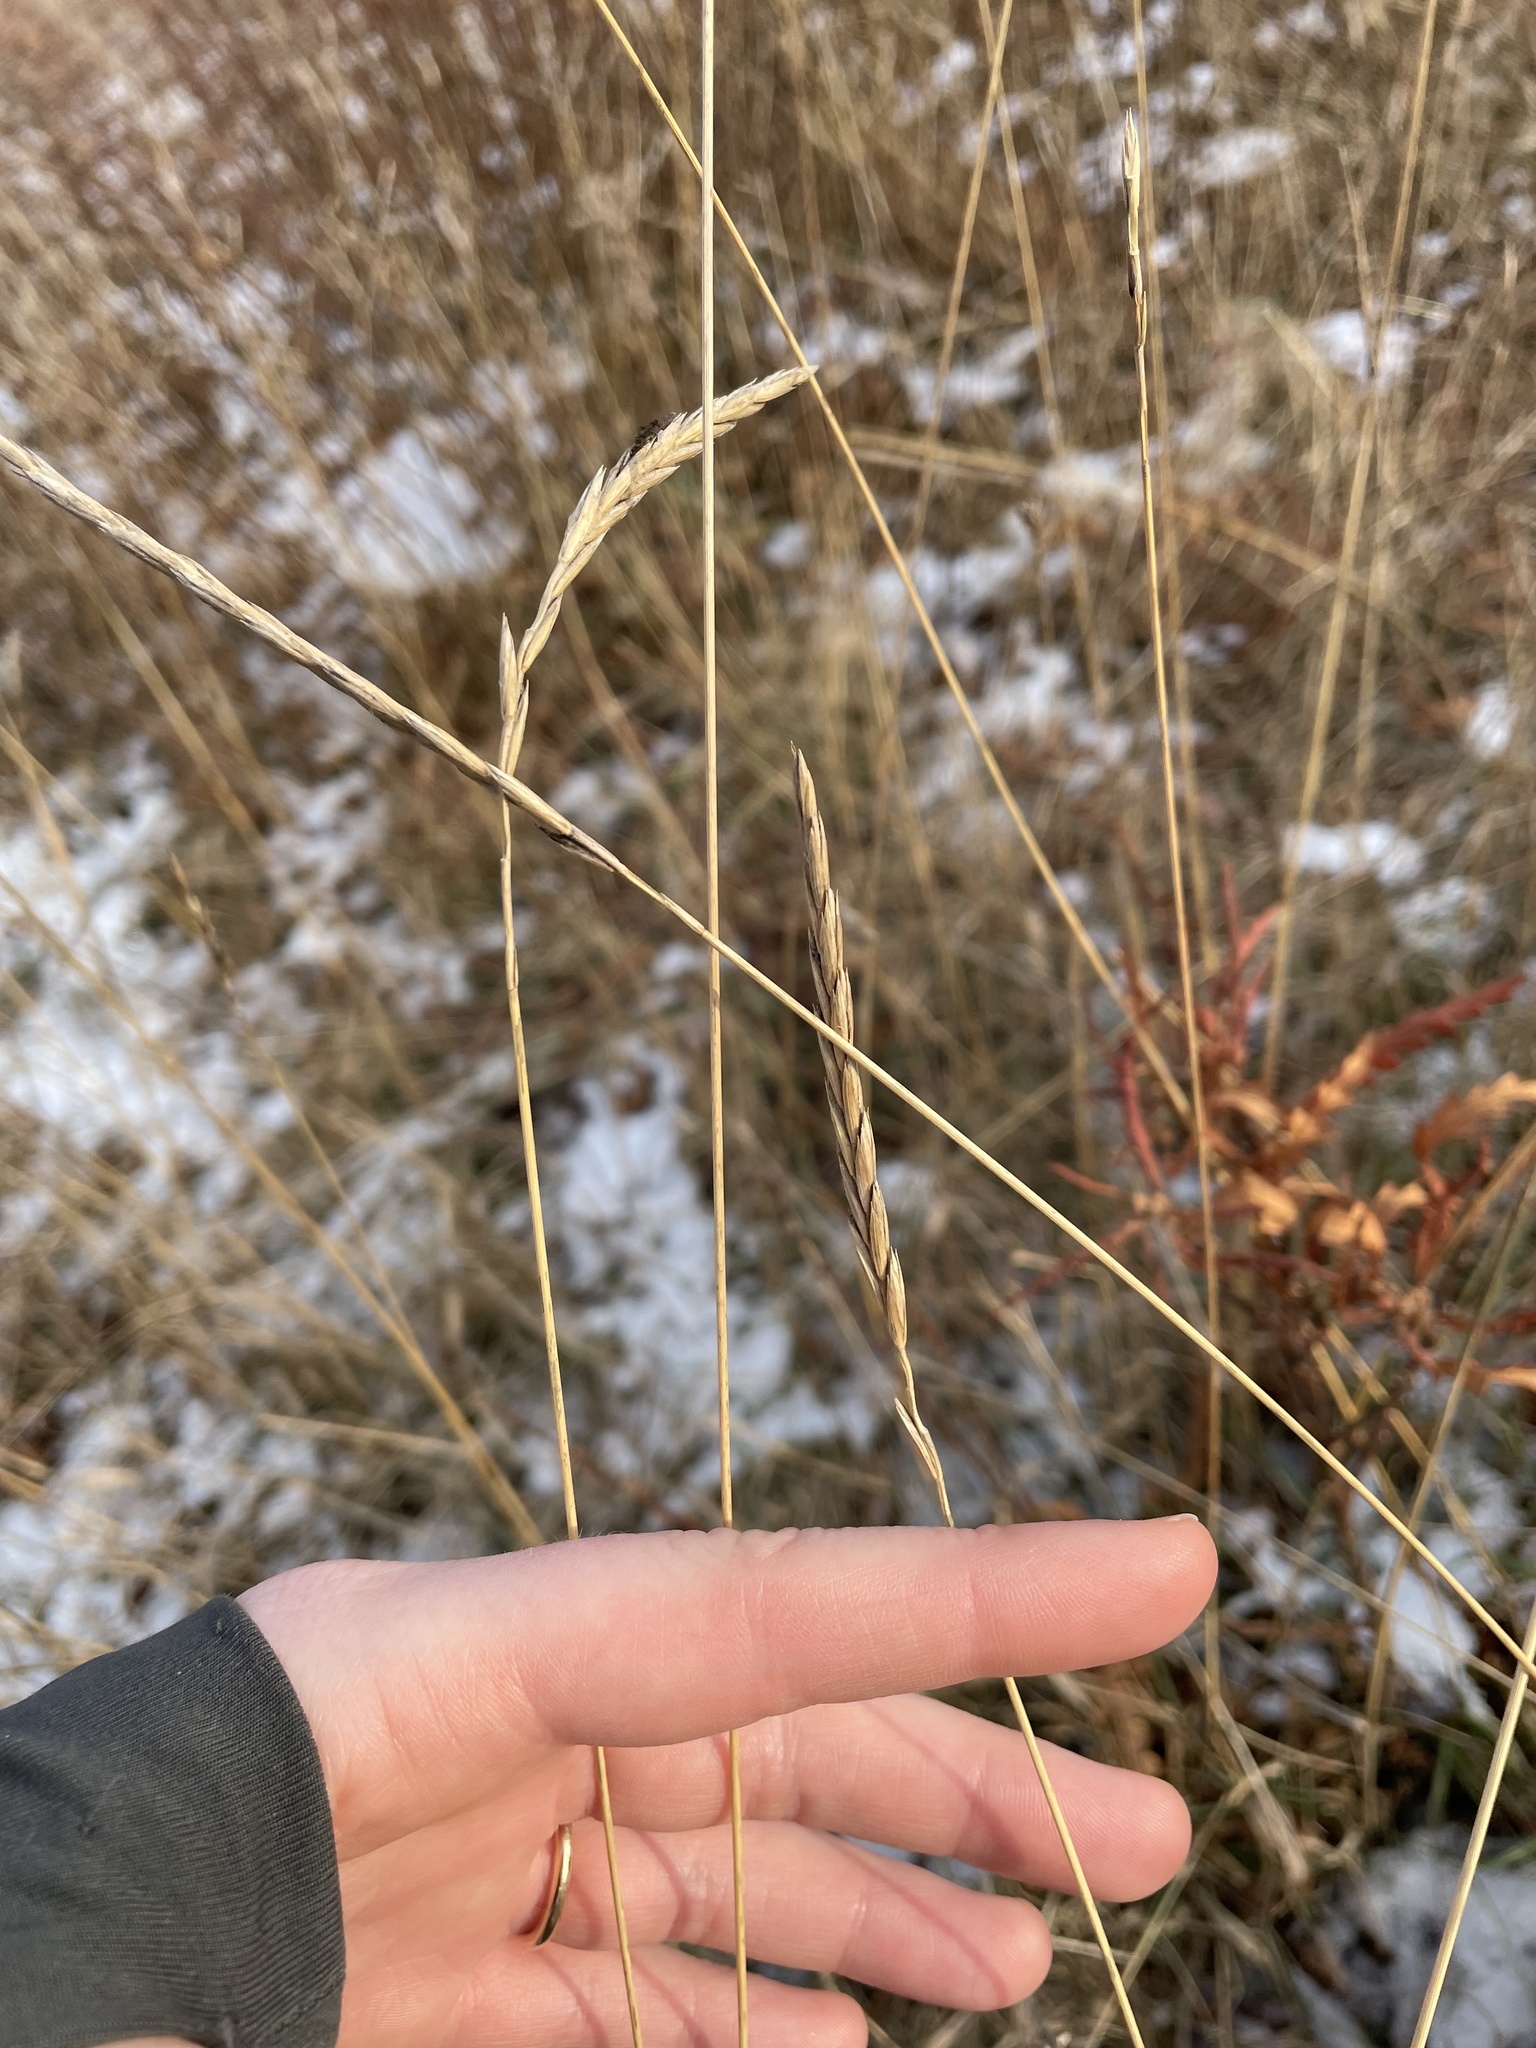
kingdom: Plantae
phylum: Tracheophyta
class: Liliopsida
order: Poales
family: Poaceae
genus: Elymus
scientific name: Elymus repens
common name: Quackgrass
